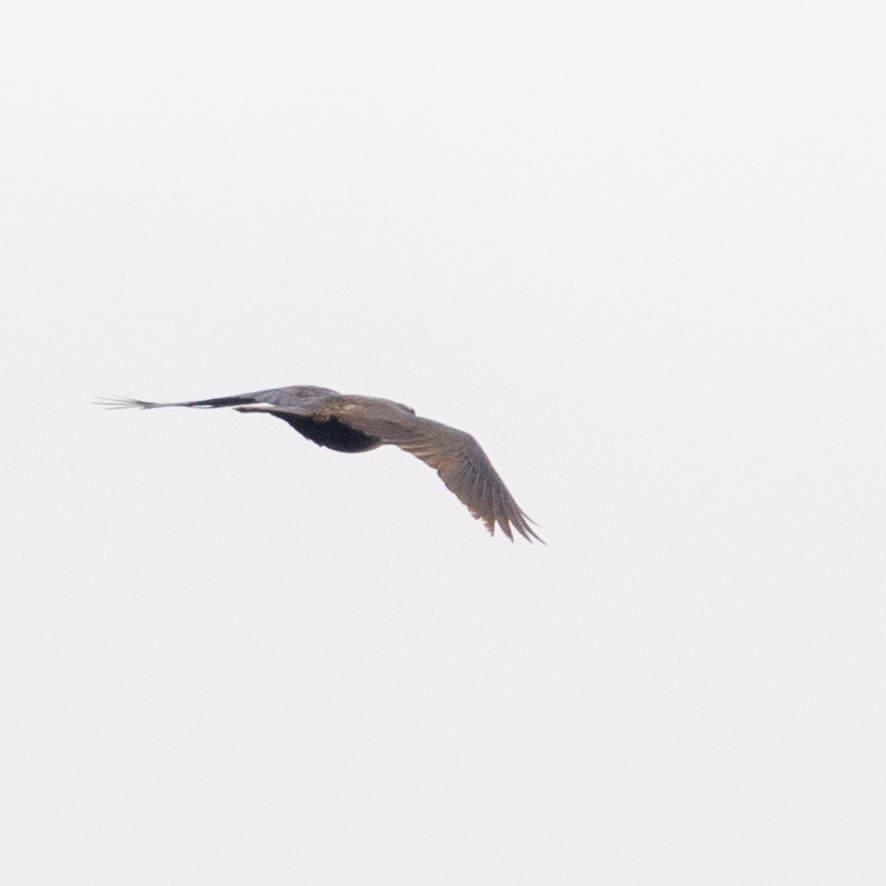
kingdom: Animalia
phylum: Chordata
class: Aves
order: Passeriformes
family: Corvidae
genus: Corvus
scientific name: Corvus corax
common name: Common raven
